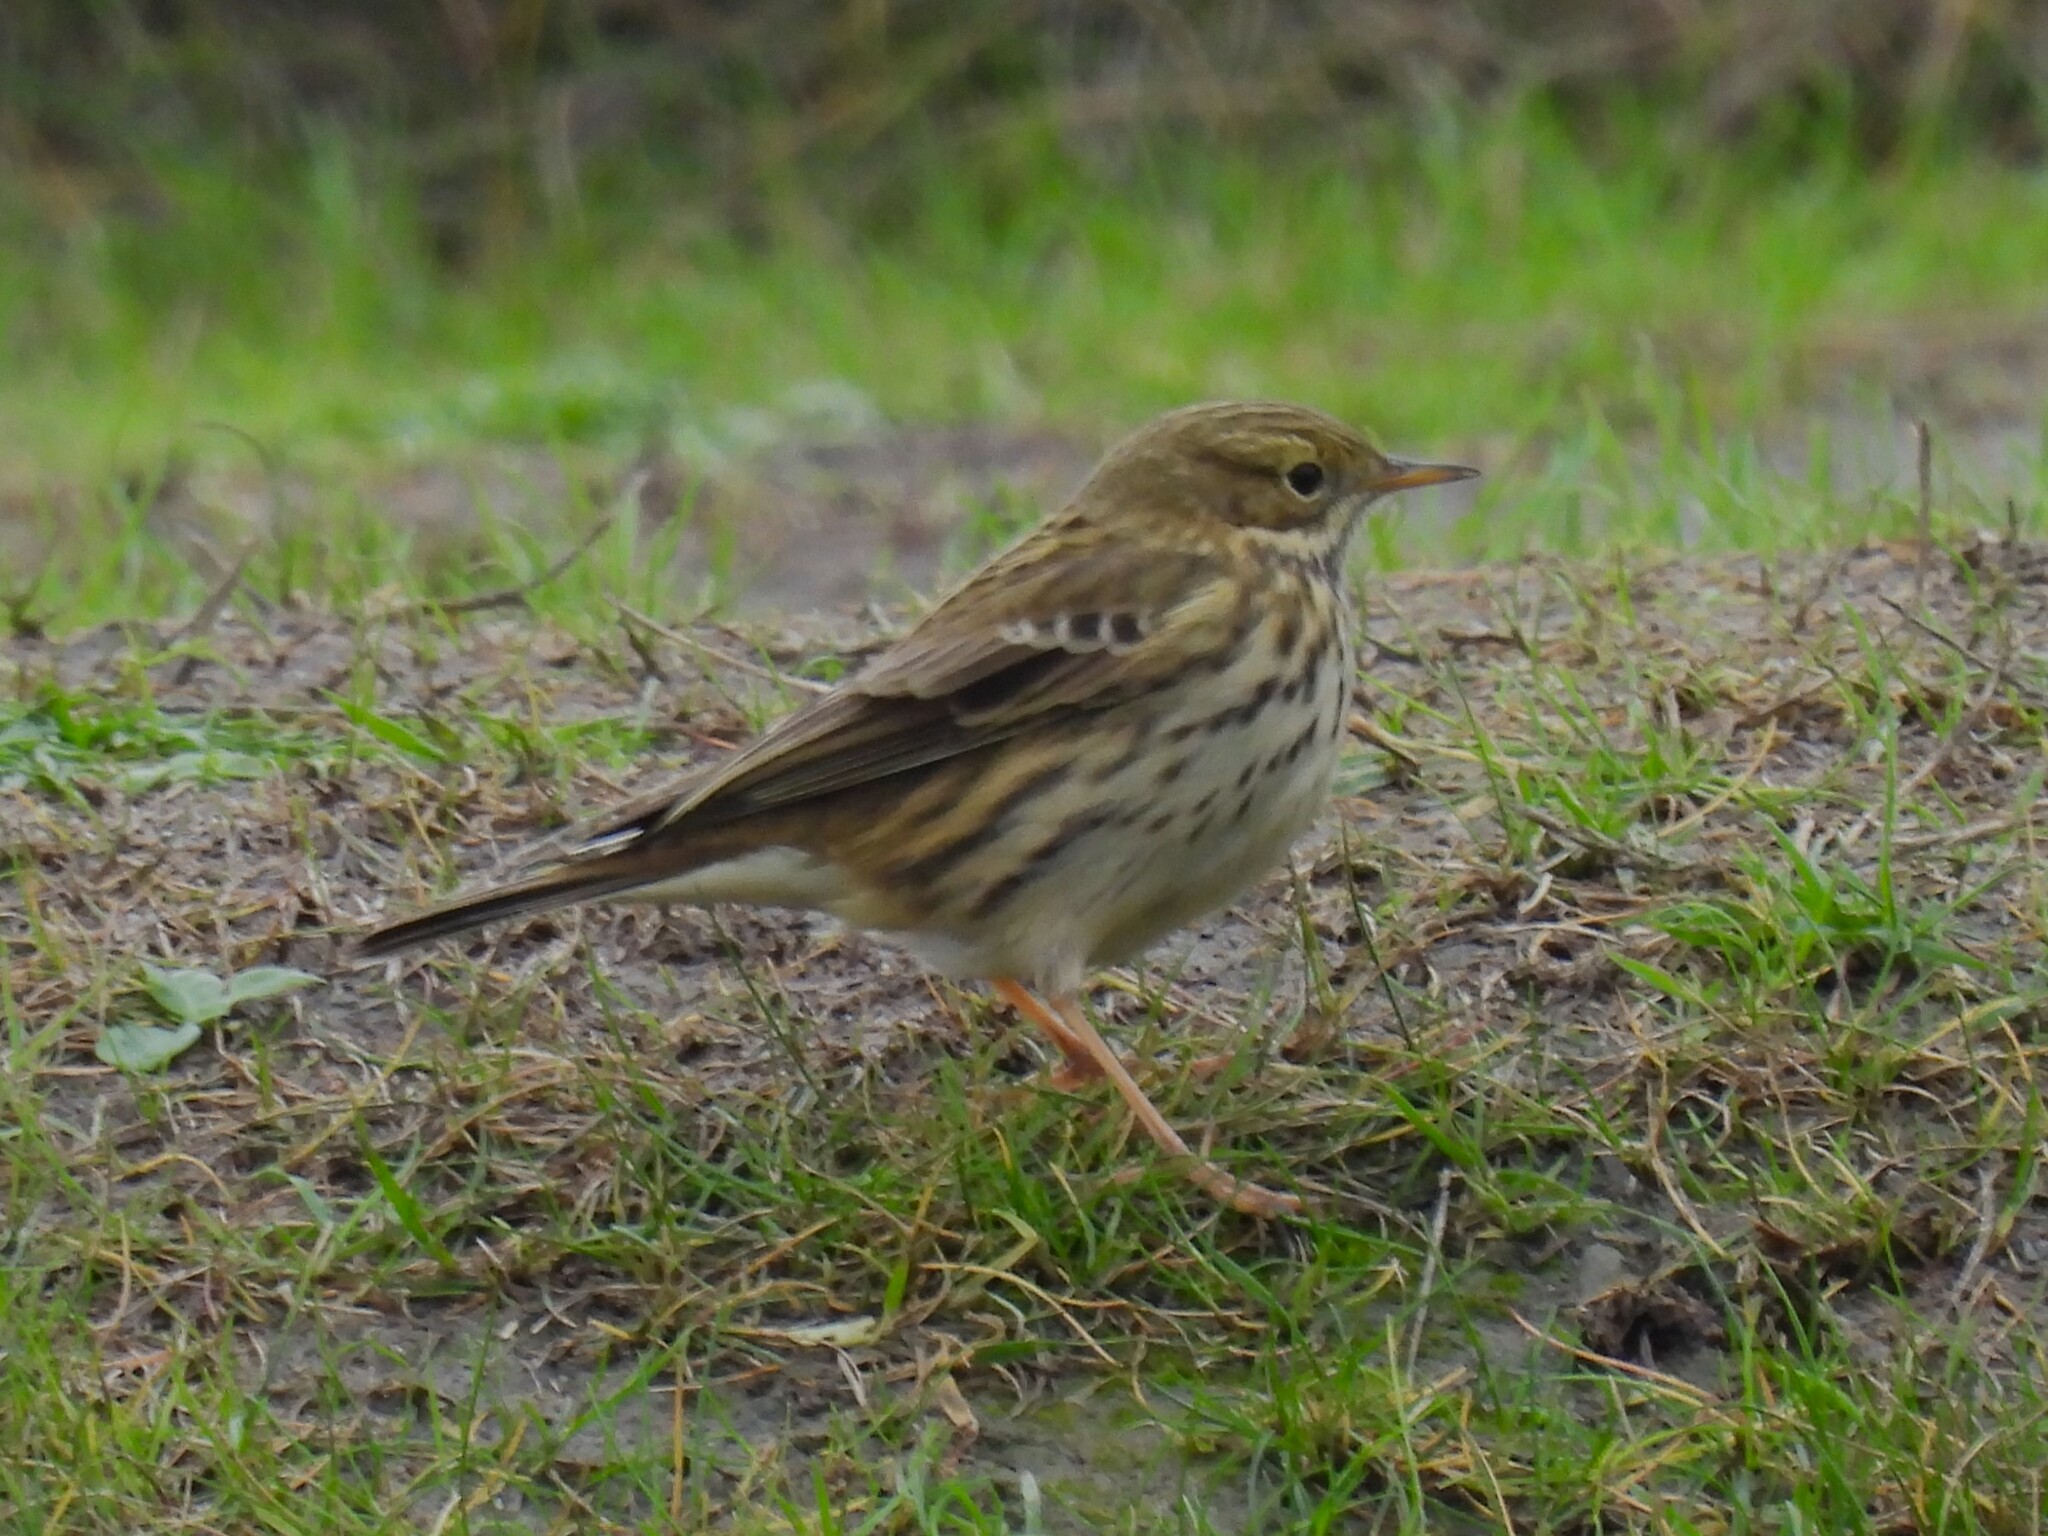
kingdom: Animalia
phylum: Chordata
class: Aves
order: Passeriformes
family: Motacillidae
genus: Anthus
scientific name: Anthus pratensis
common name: Meadow pipit
